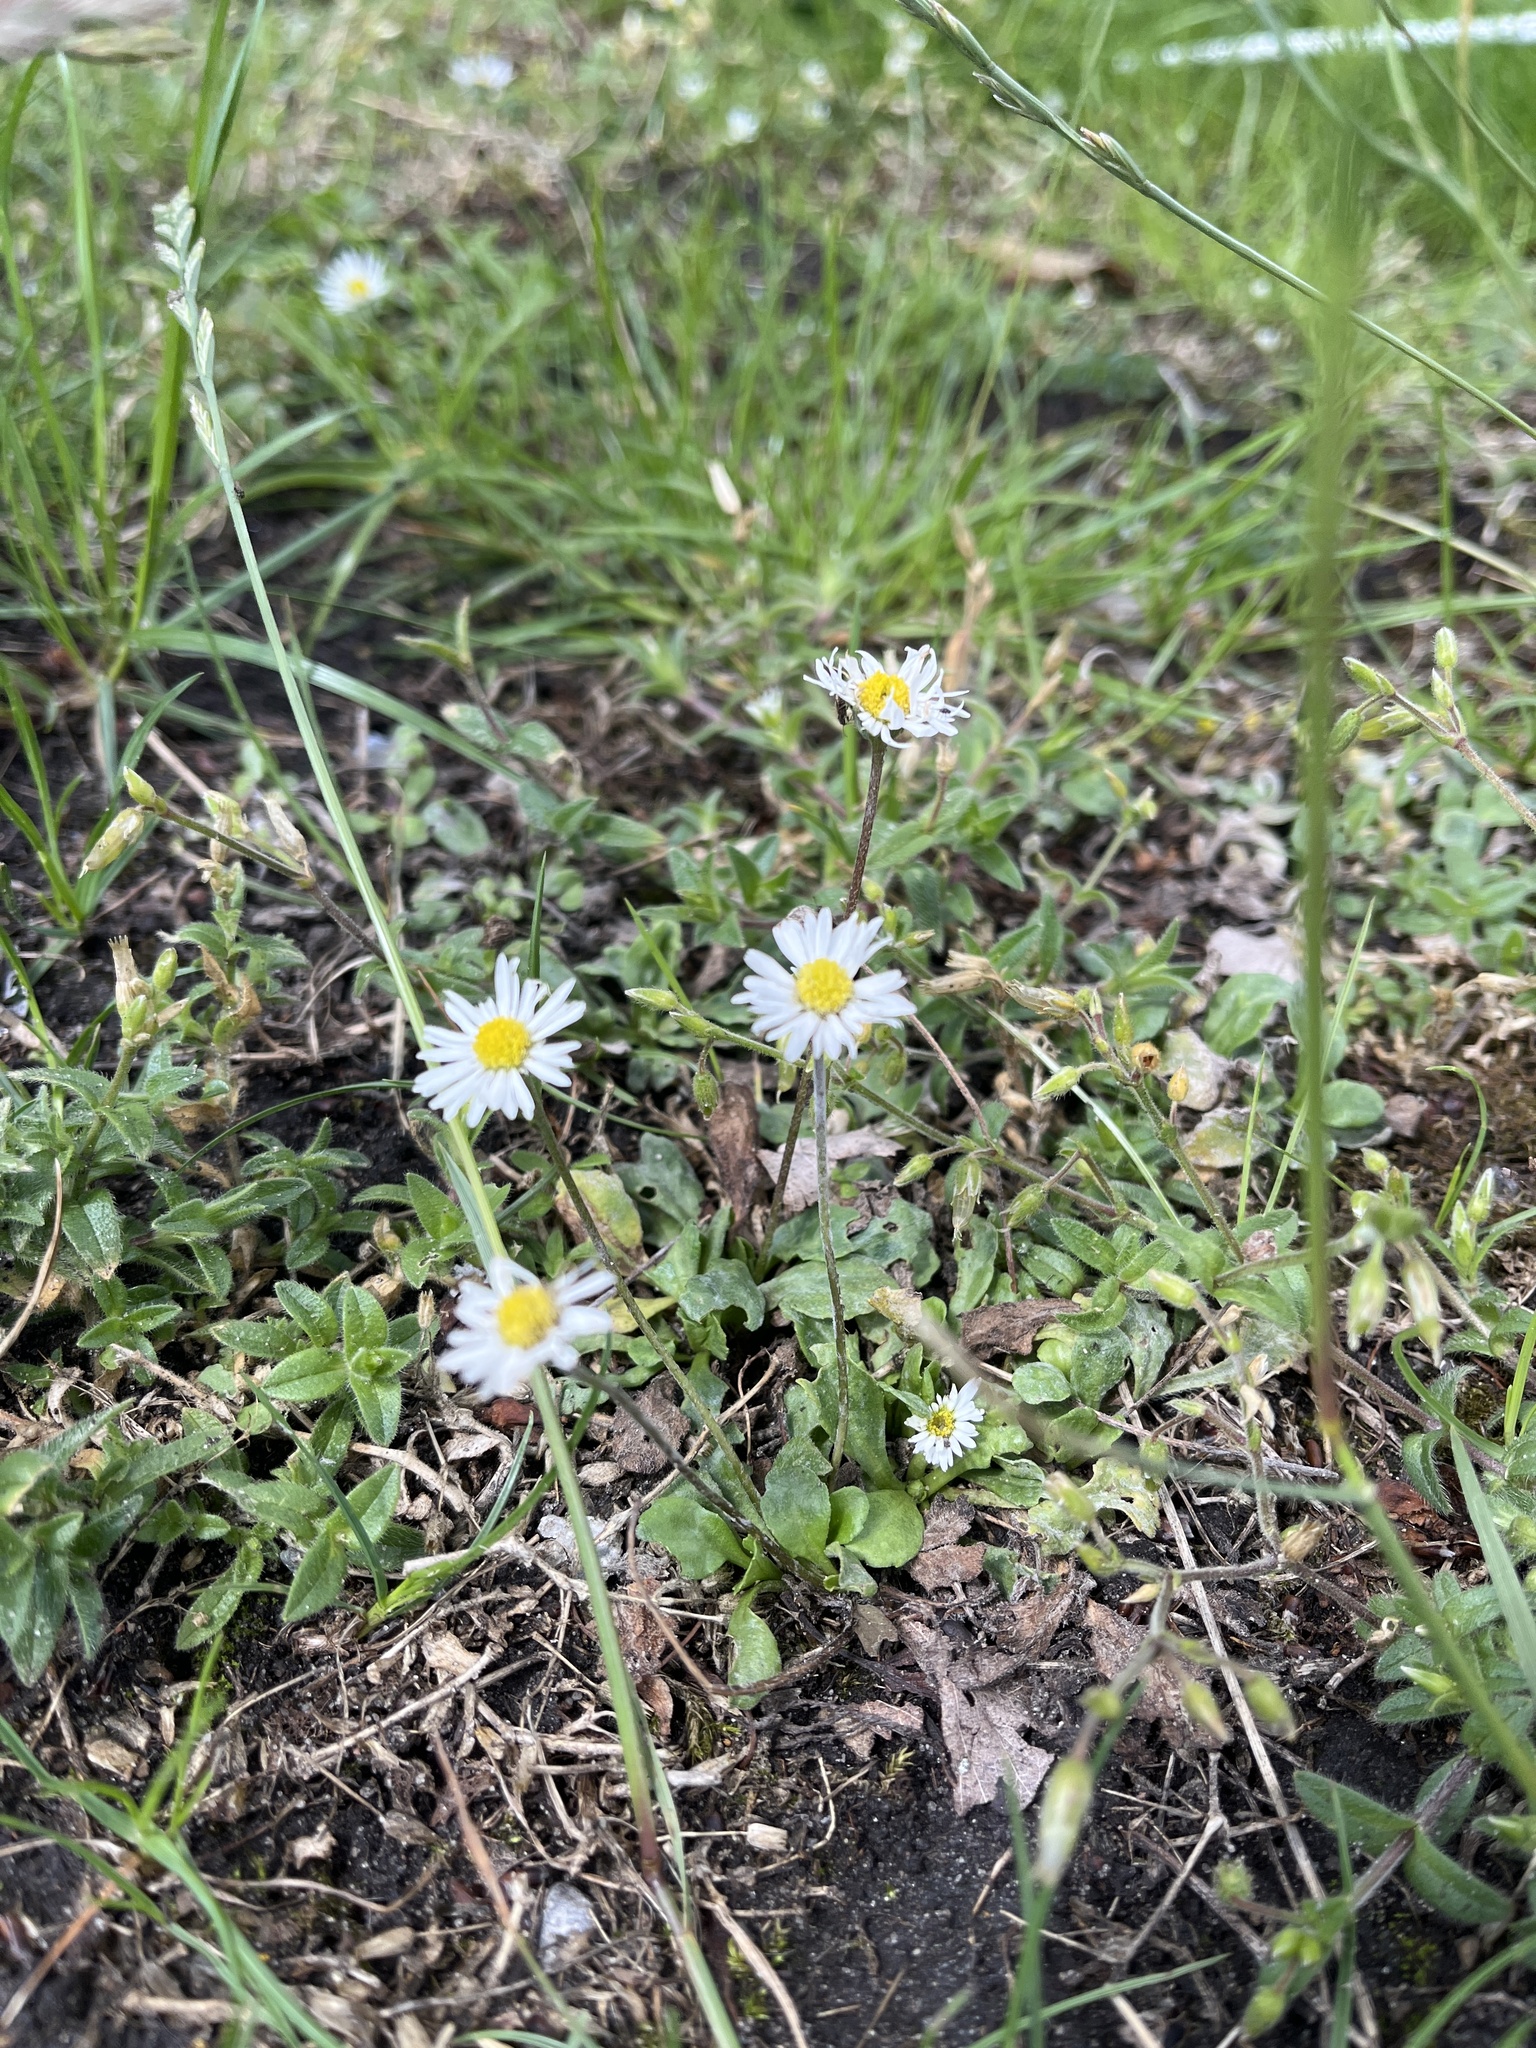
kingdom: Plantae
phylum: Tracheophyta
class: Magnoliopsida
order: Asterales
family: Asteraceae
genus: Bellis
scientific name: Bellis perennis
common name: Lawndaisy
